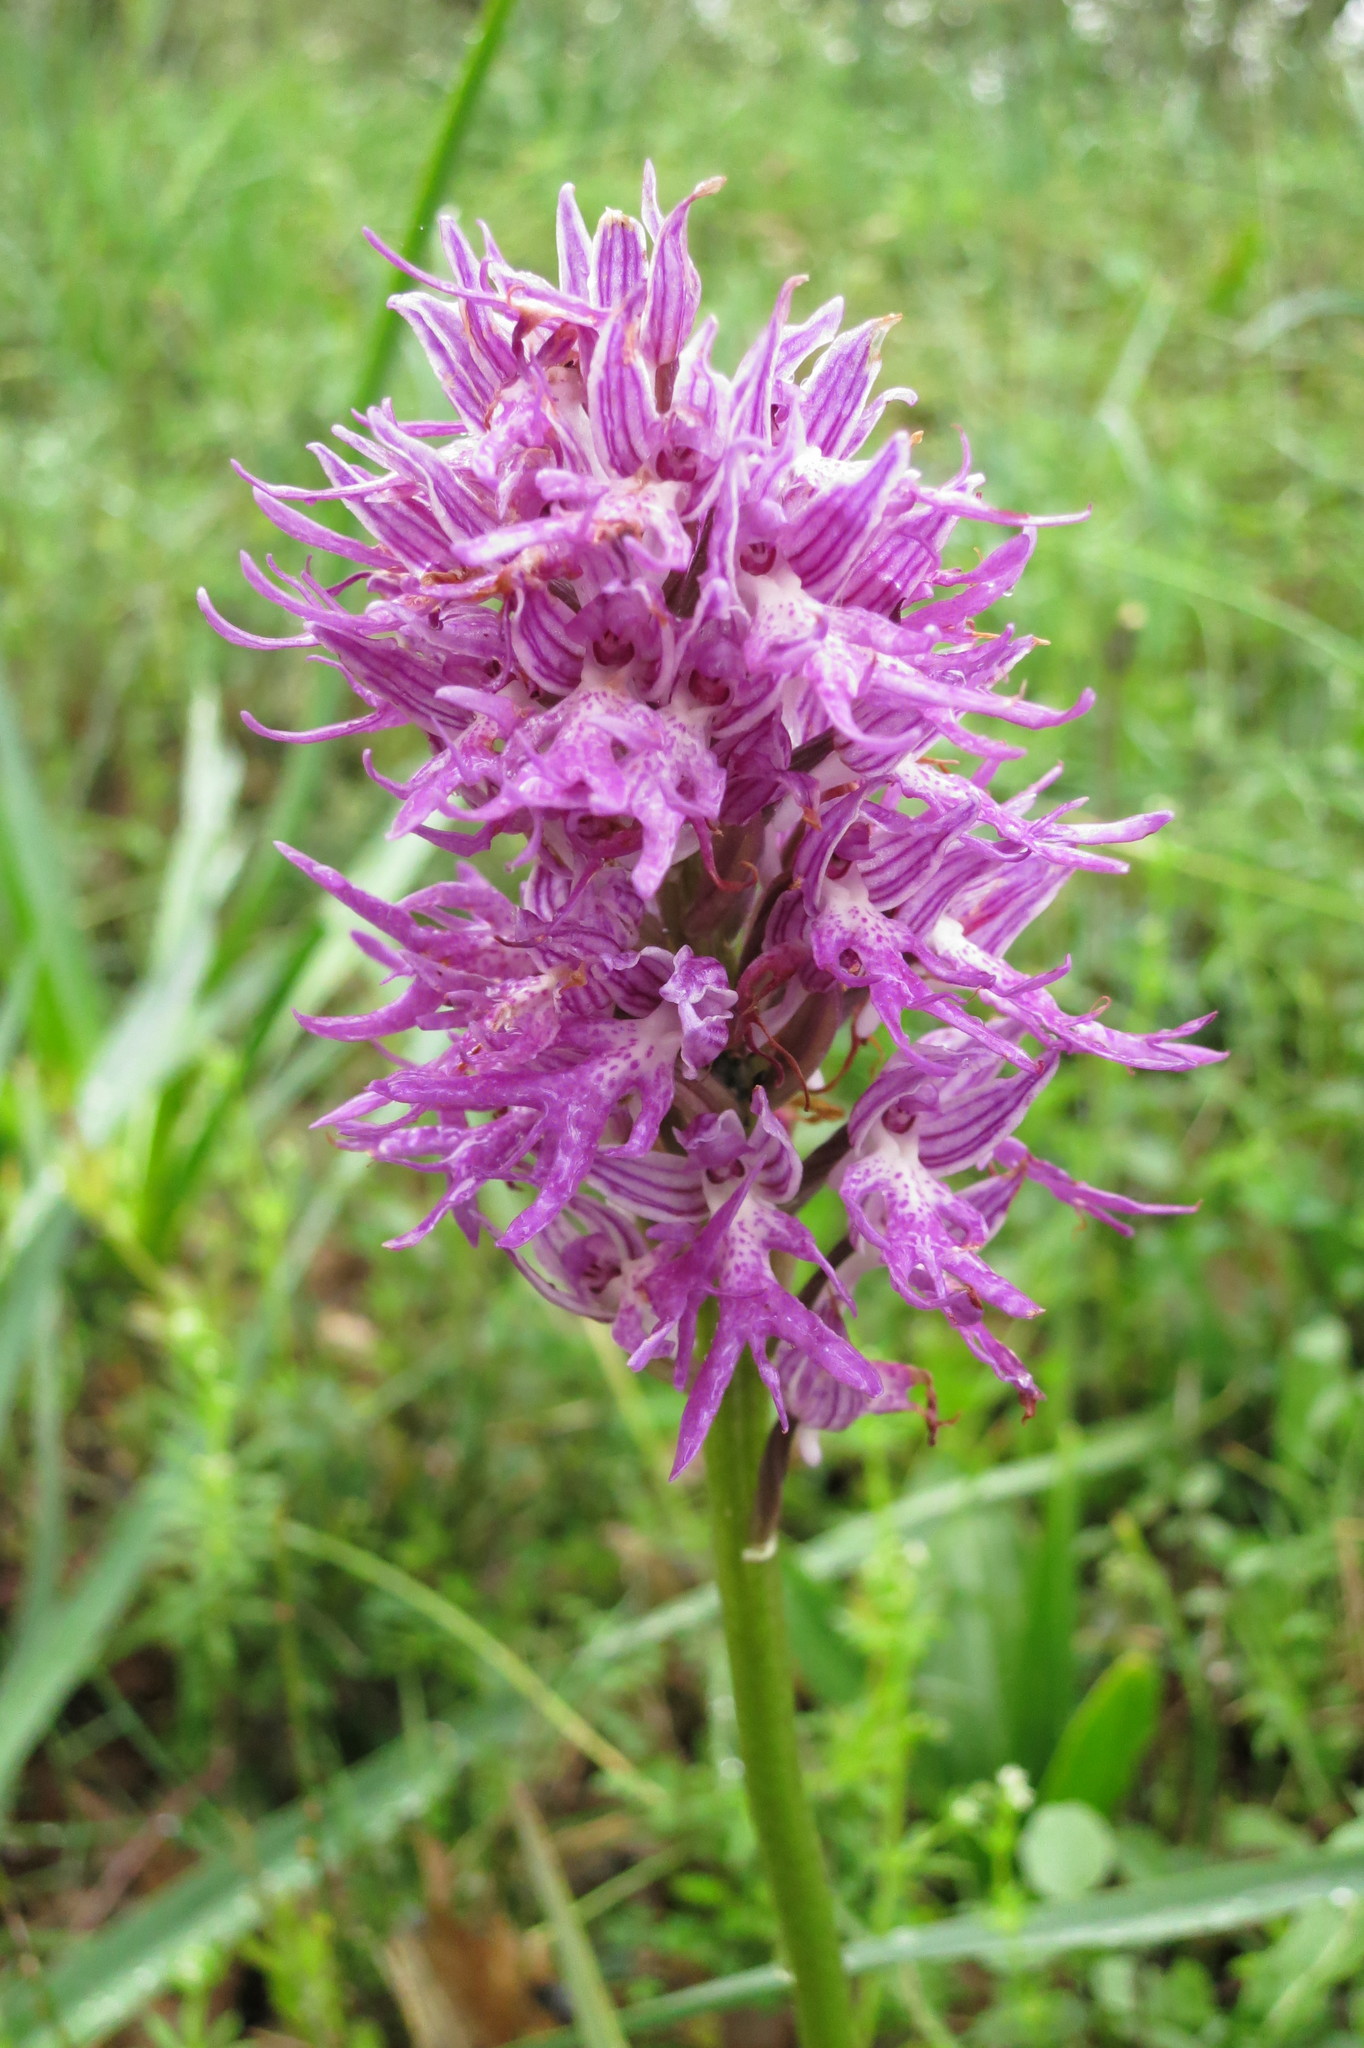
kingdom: Plantae
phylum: Tracheophyta
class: Liliopsida
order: Asparagales
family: Orchidaceae
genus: Orchis
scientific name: Orchis italica
